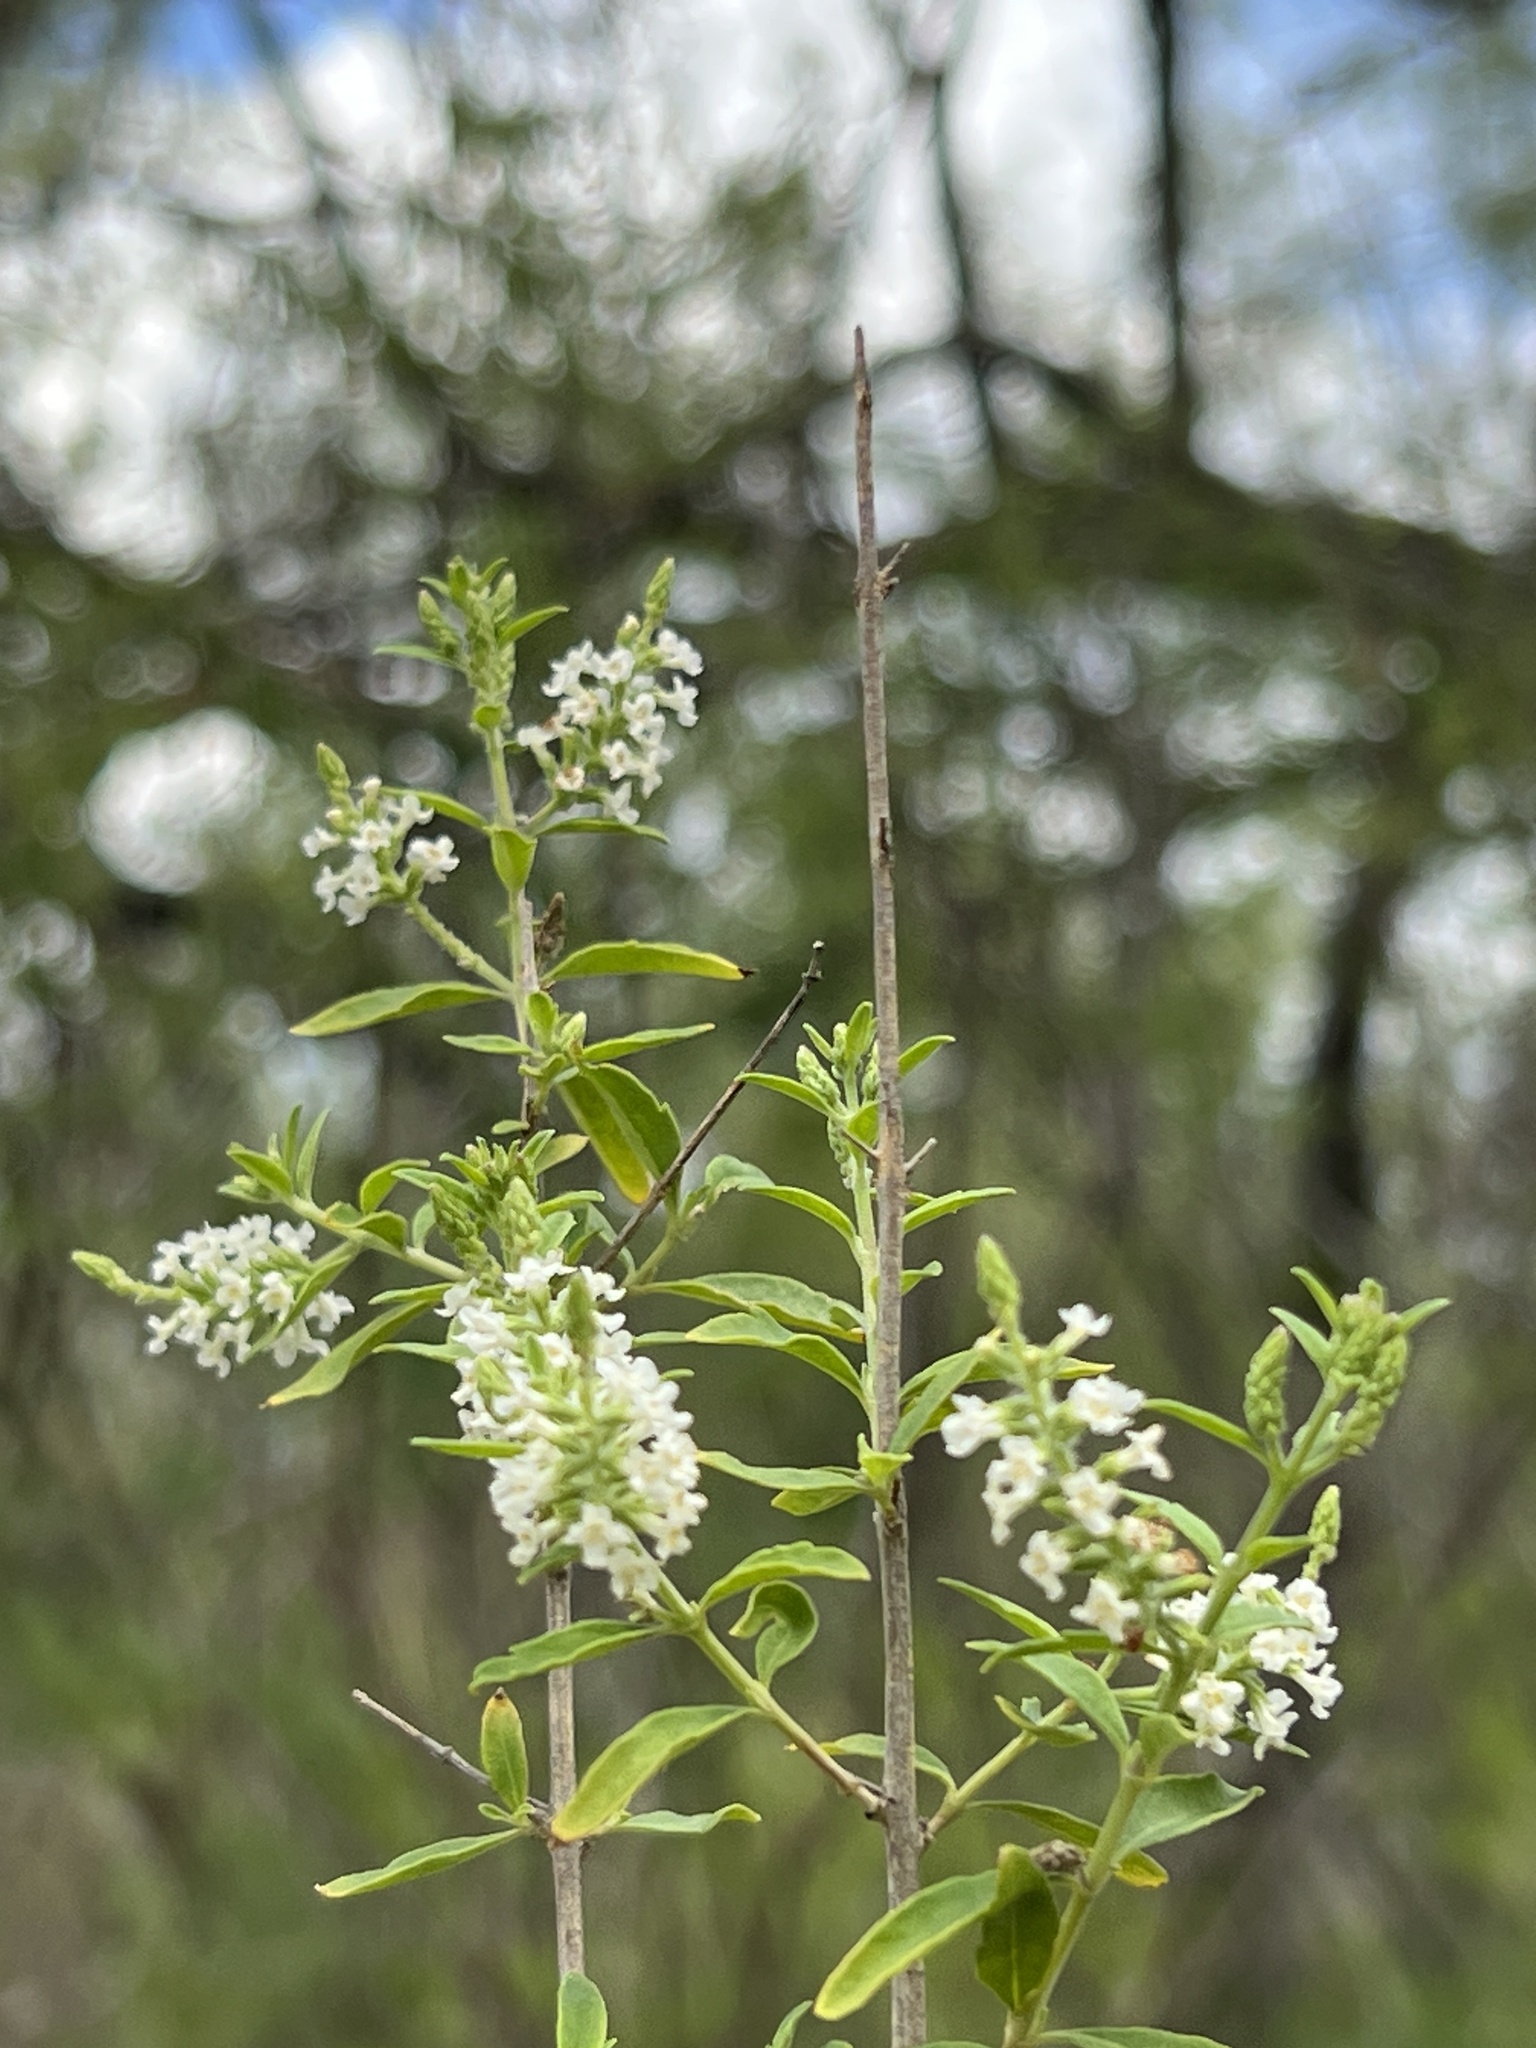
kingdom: Plantae
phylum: Tracheophyta
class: Magnoliopsida
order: Lamiales
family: Verbenaceae
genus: Aloysia
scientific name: Aloysia gratissima
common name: Common bee-brush
